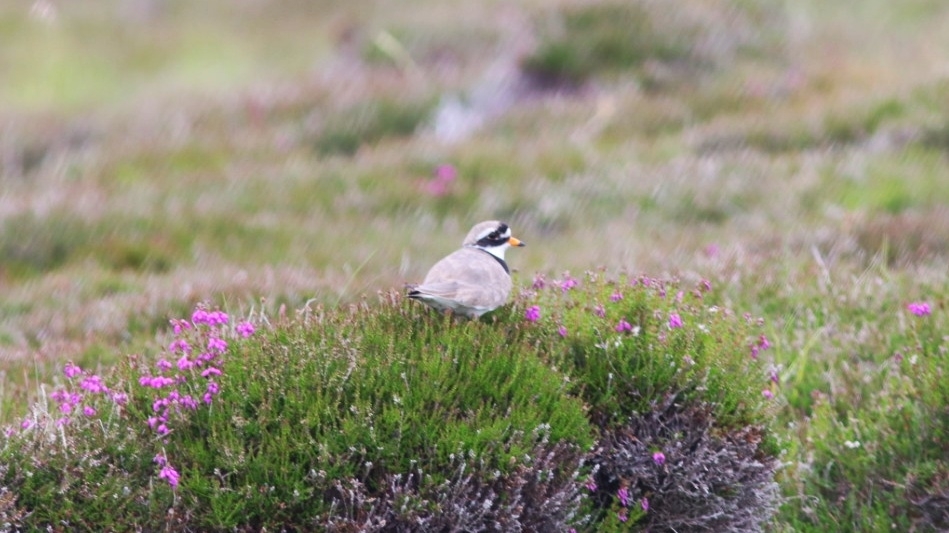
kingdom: Animalia
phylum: Chordata
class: Aves
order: Charadriiformes
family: Charadriidae
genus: Charadrius
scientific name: Charadrius hiaticula
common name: Common ringed plover
